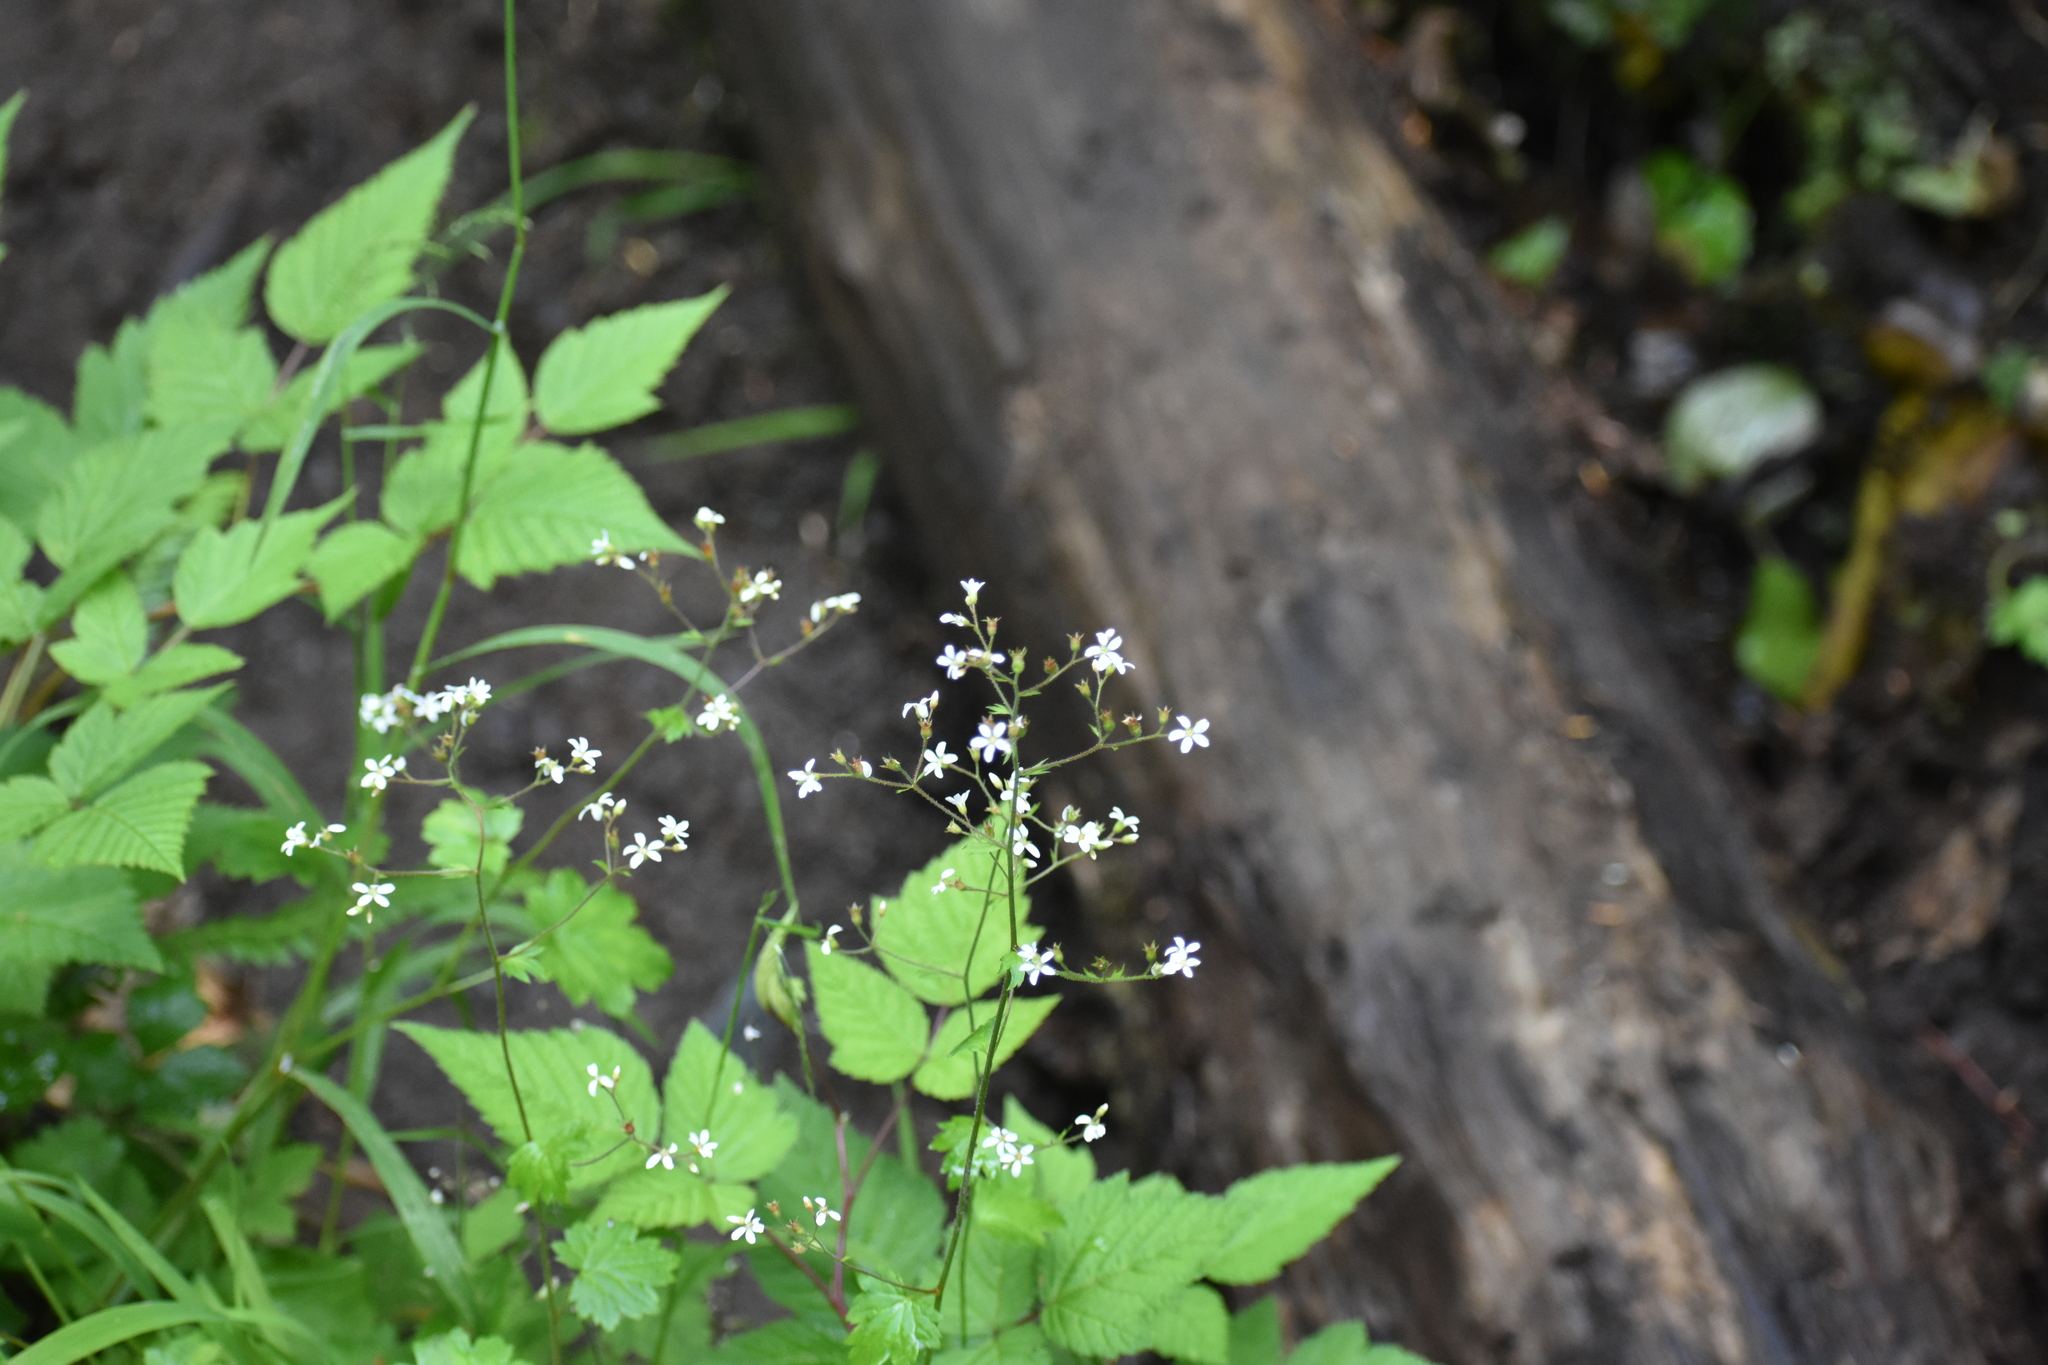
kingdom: Plantae
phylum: Tracheophyta
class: Magnoliopsida
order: Saxifragales
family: Saxifragaceae
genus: Boykinia
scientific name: Boykinia occidentalis
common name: Coast boykinia
